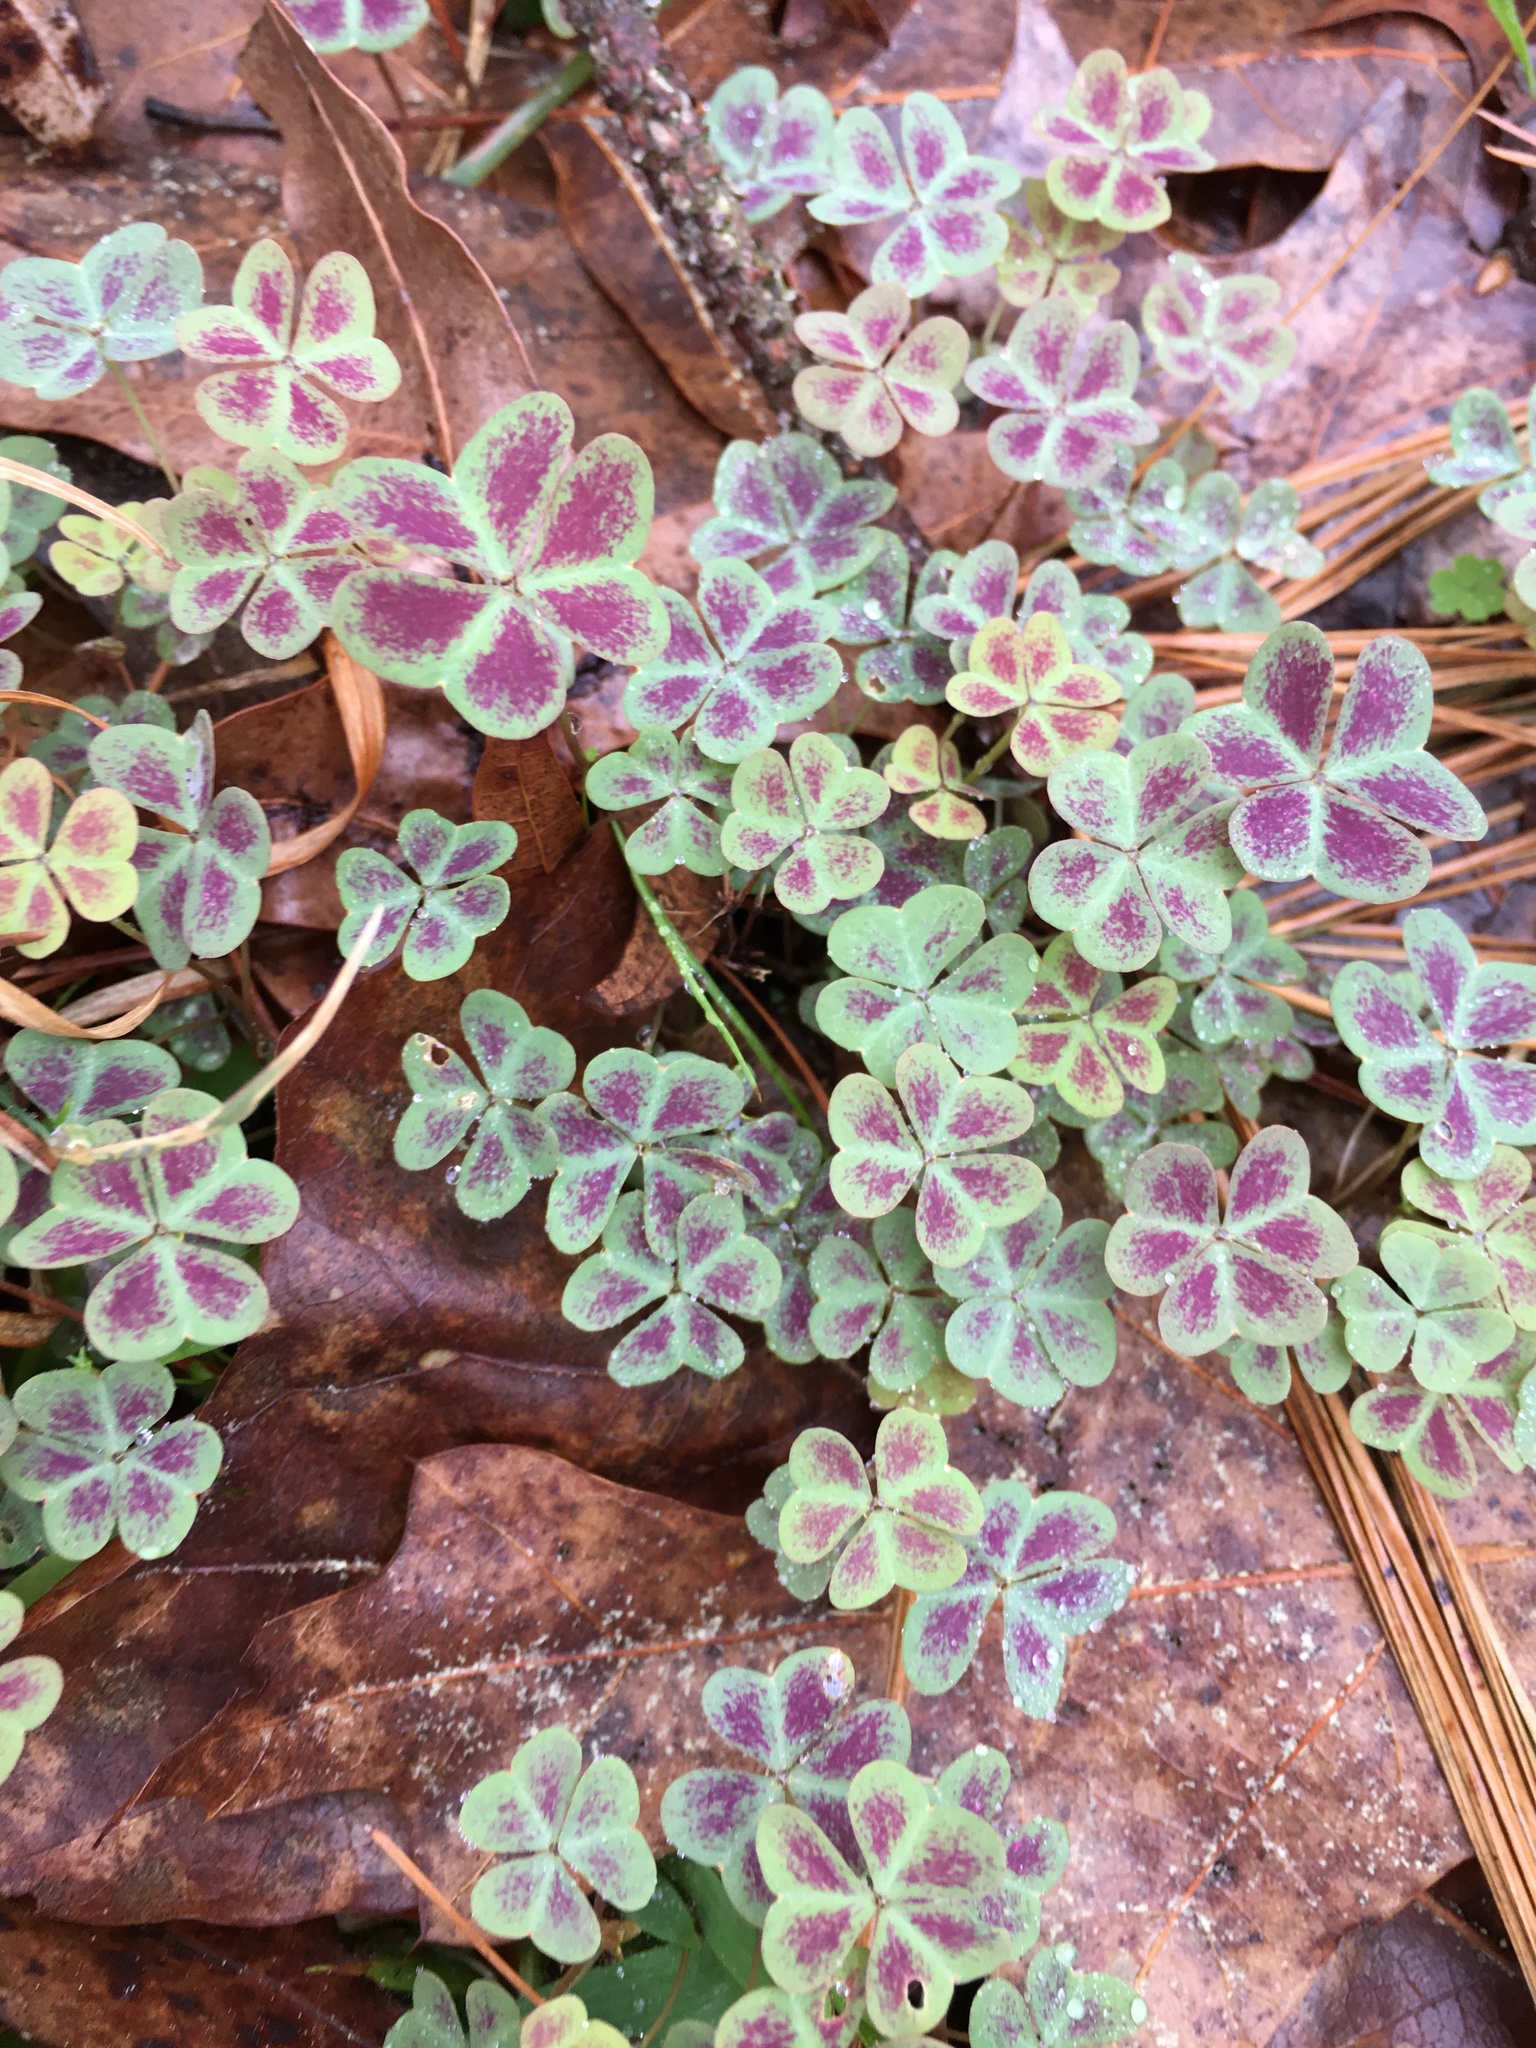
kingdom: Plantae
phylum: Tracheophyta
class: Magnoliopsida
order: Oxalidales
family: Oxalidaceae
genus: Oxalis
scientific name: Oxalis violacea
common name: Violet wood-sorrel
